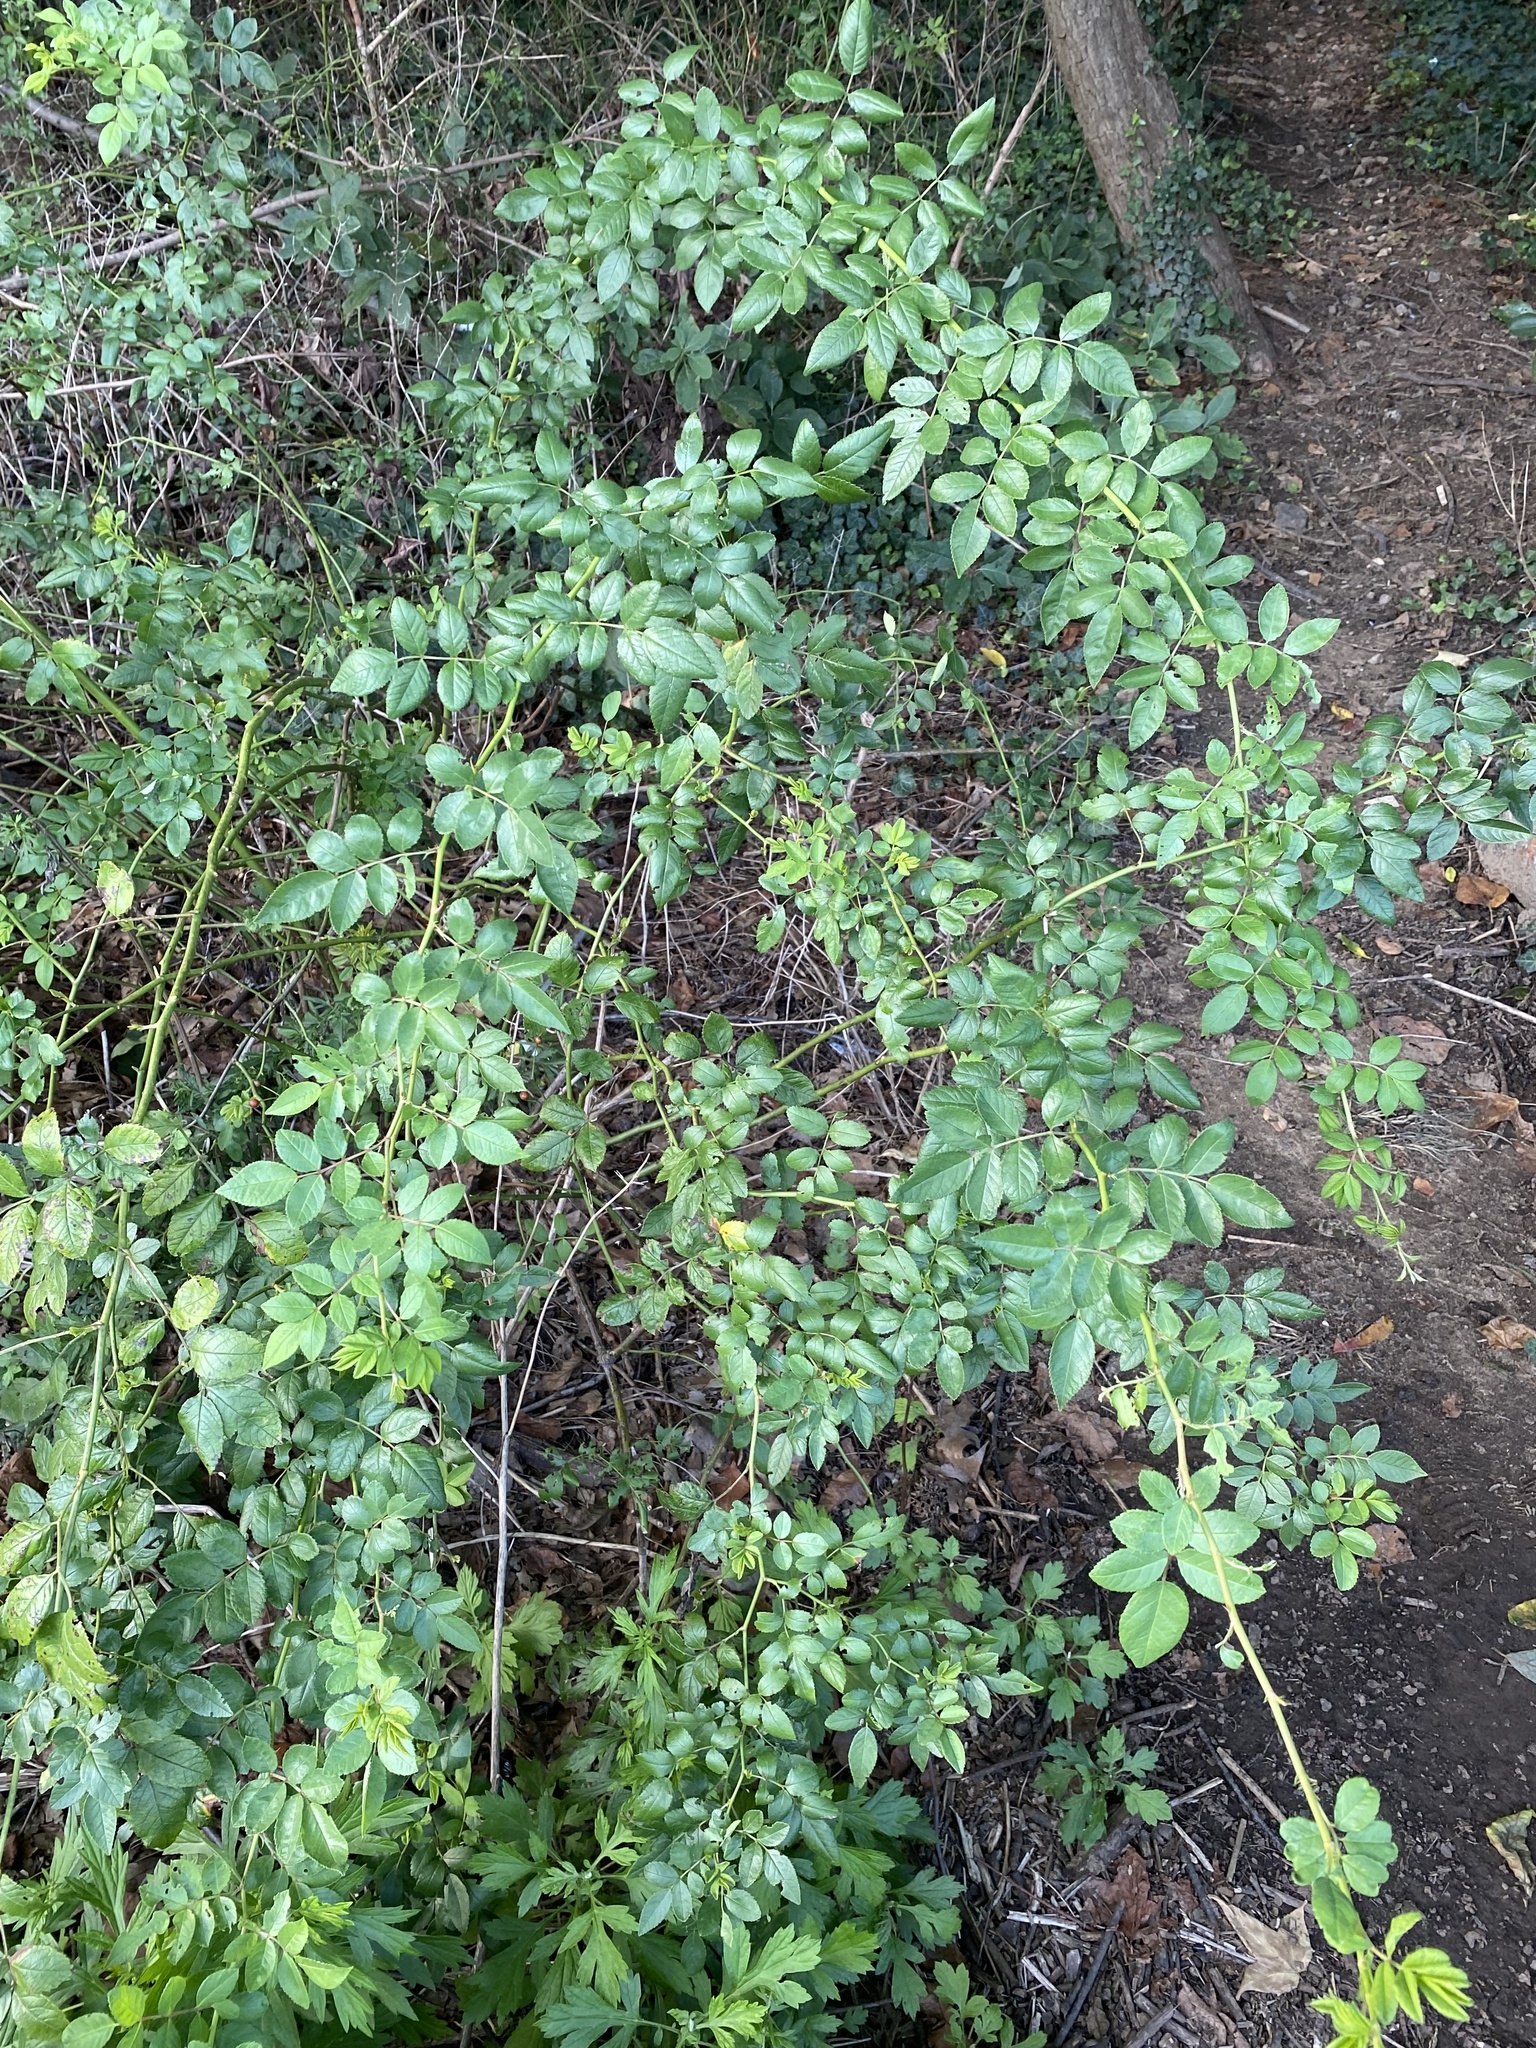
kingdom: Plantae
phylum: Tracheophyta
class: Magnoliopsida
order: Rosales
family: Rosaceae
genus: Rosa
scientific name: Rosa multiflora
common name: Multiflora rose
